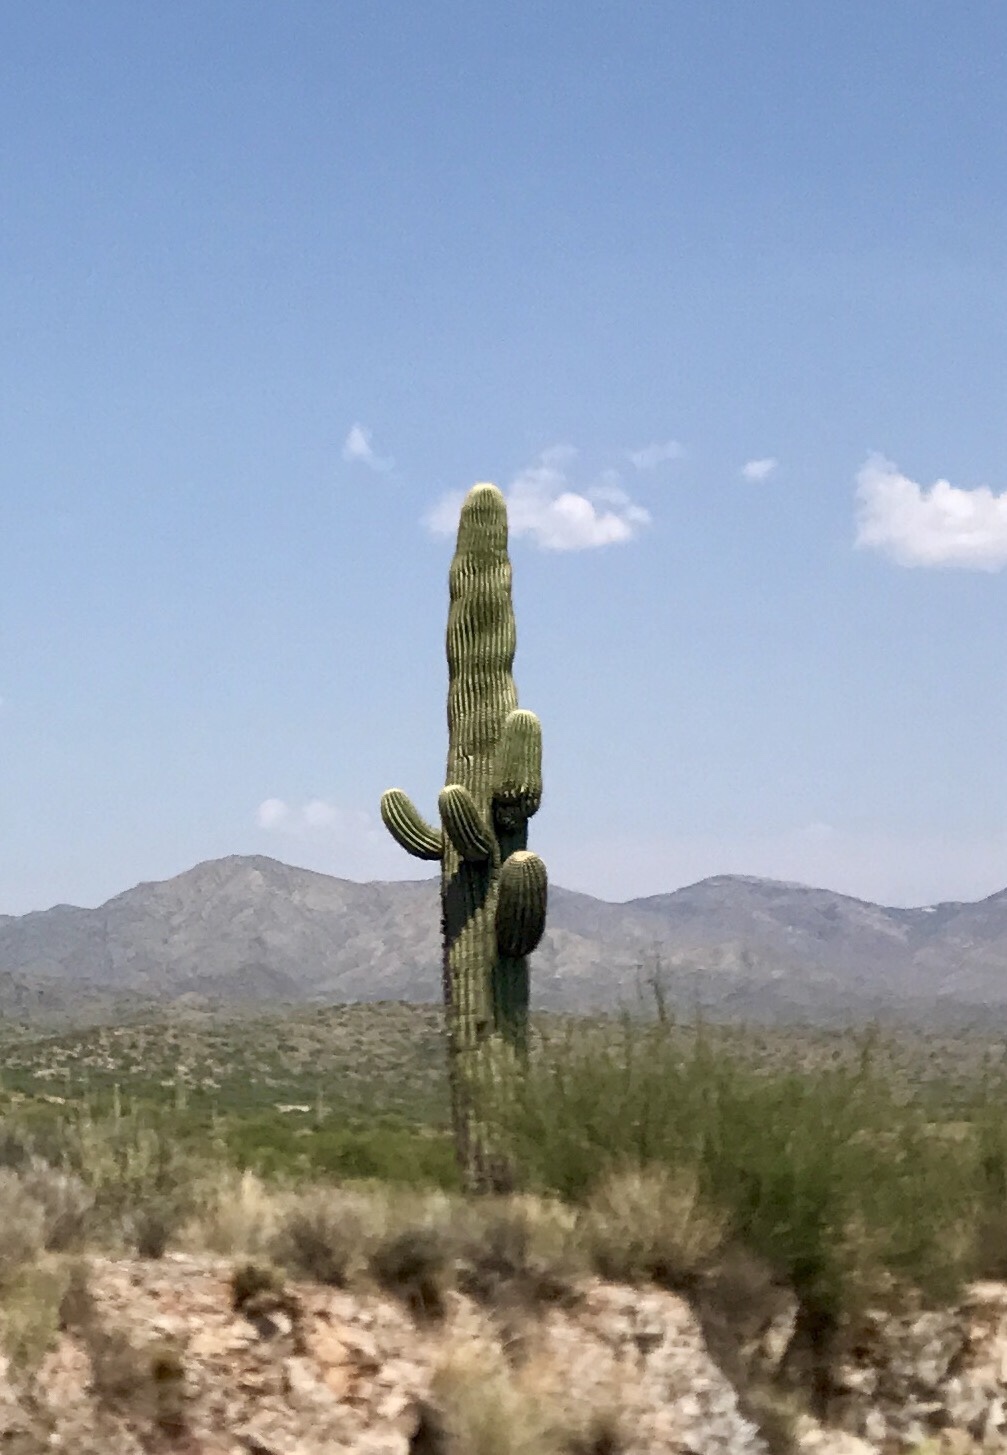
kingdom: Plantae
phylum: Tracheophyta
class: Magnoliopsida
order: Caryophyllales
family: Cactaceae
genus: Carnegiea
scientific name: Carnegiea gigantea
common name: Saguaro
